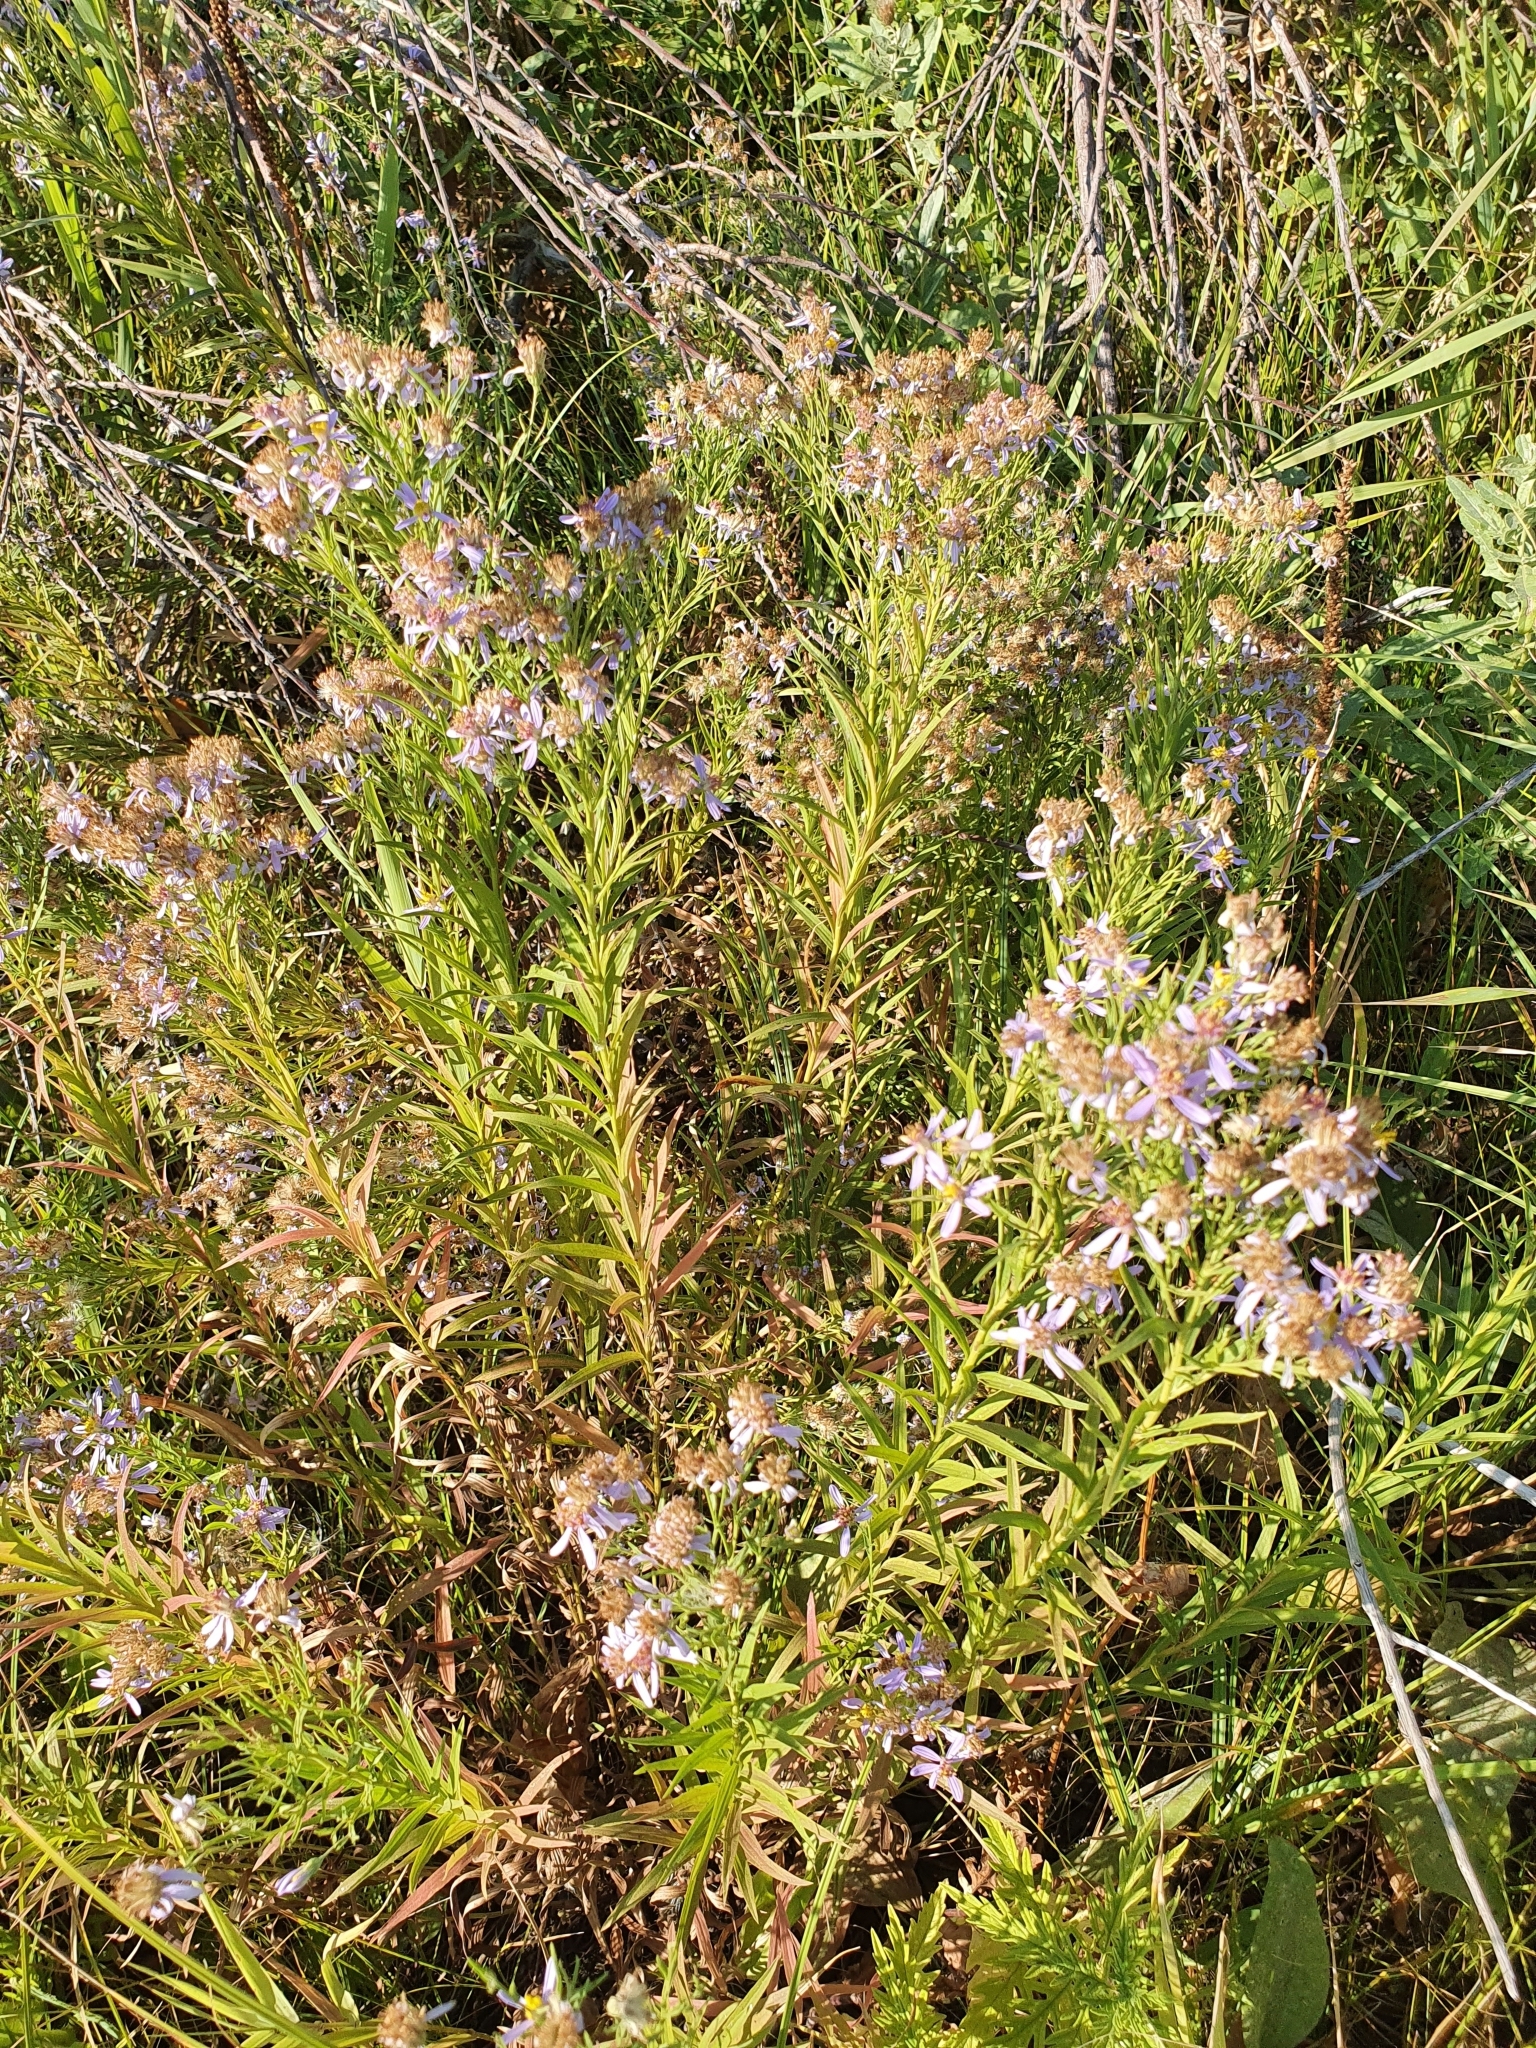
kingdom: Plantae
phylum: Tracheophyta
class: Magnoliopsida
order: Asterales
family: Asteraceae
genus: Galatella
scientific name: Galatella sedifolia
